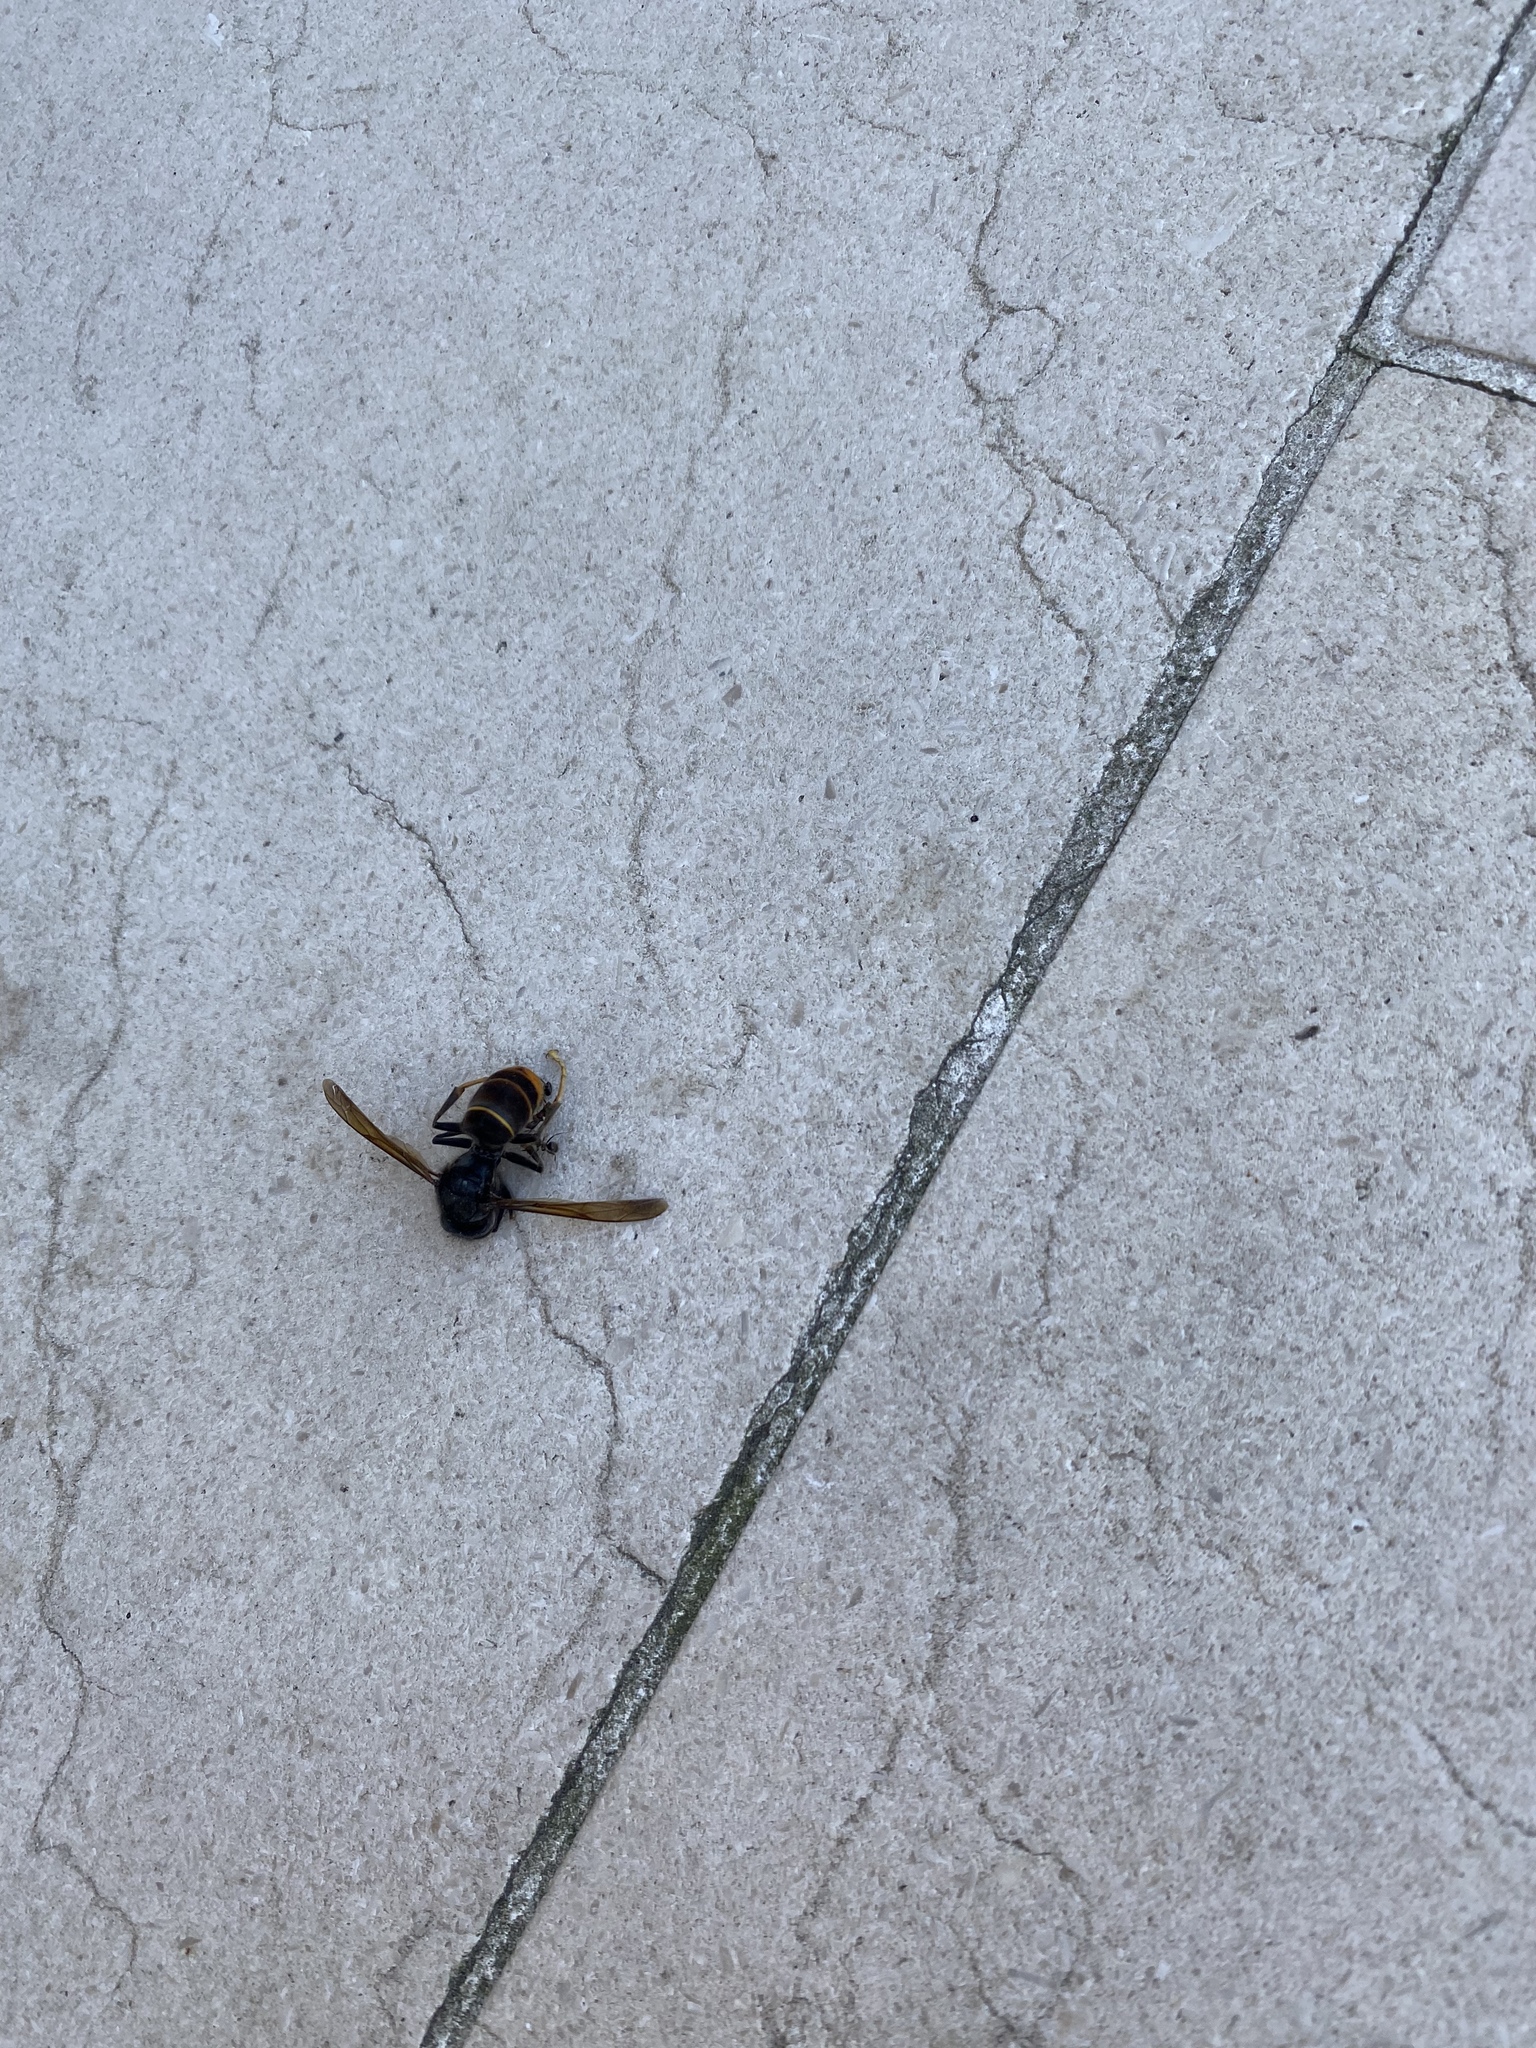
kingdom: Animalia
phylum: Arthropoda
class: Insecta
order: Hymenoptera
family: Vespidae
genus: Vespa
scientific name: Vespa velutina
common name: Asian hornet
